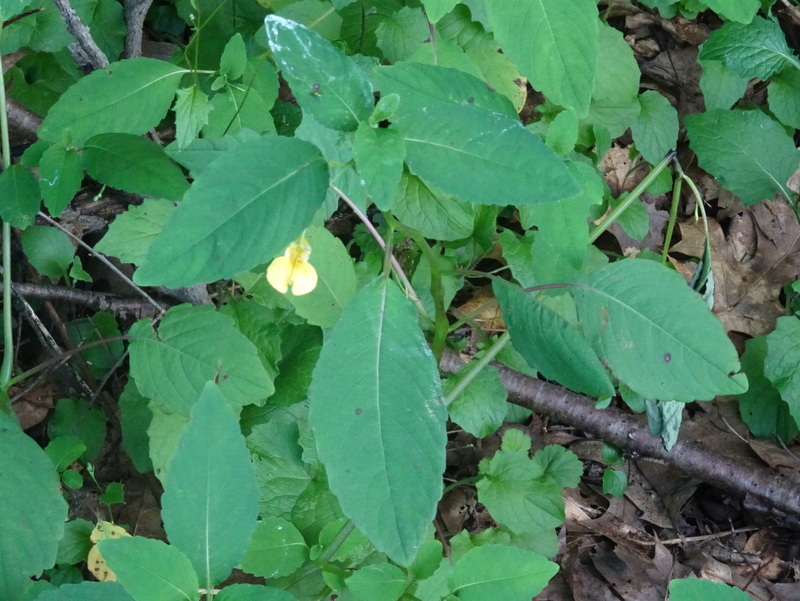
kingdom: Plantae
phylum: Tracheophyta
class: Magnoliopsida
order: Ericales
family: Balsaminaceae
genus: Impatiens
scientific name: Impatiens pallida
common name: Pale snapweed
